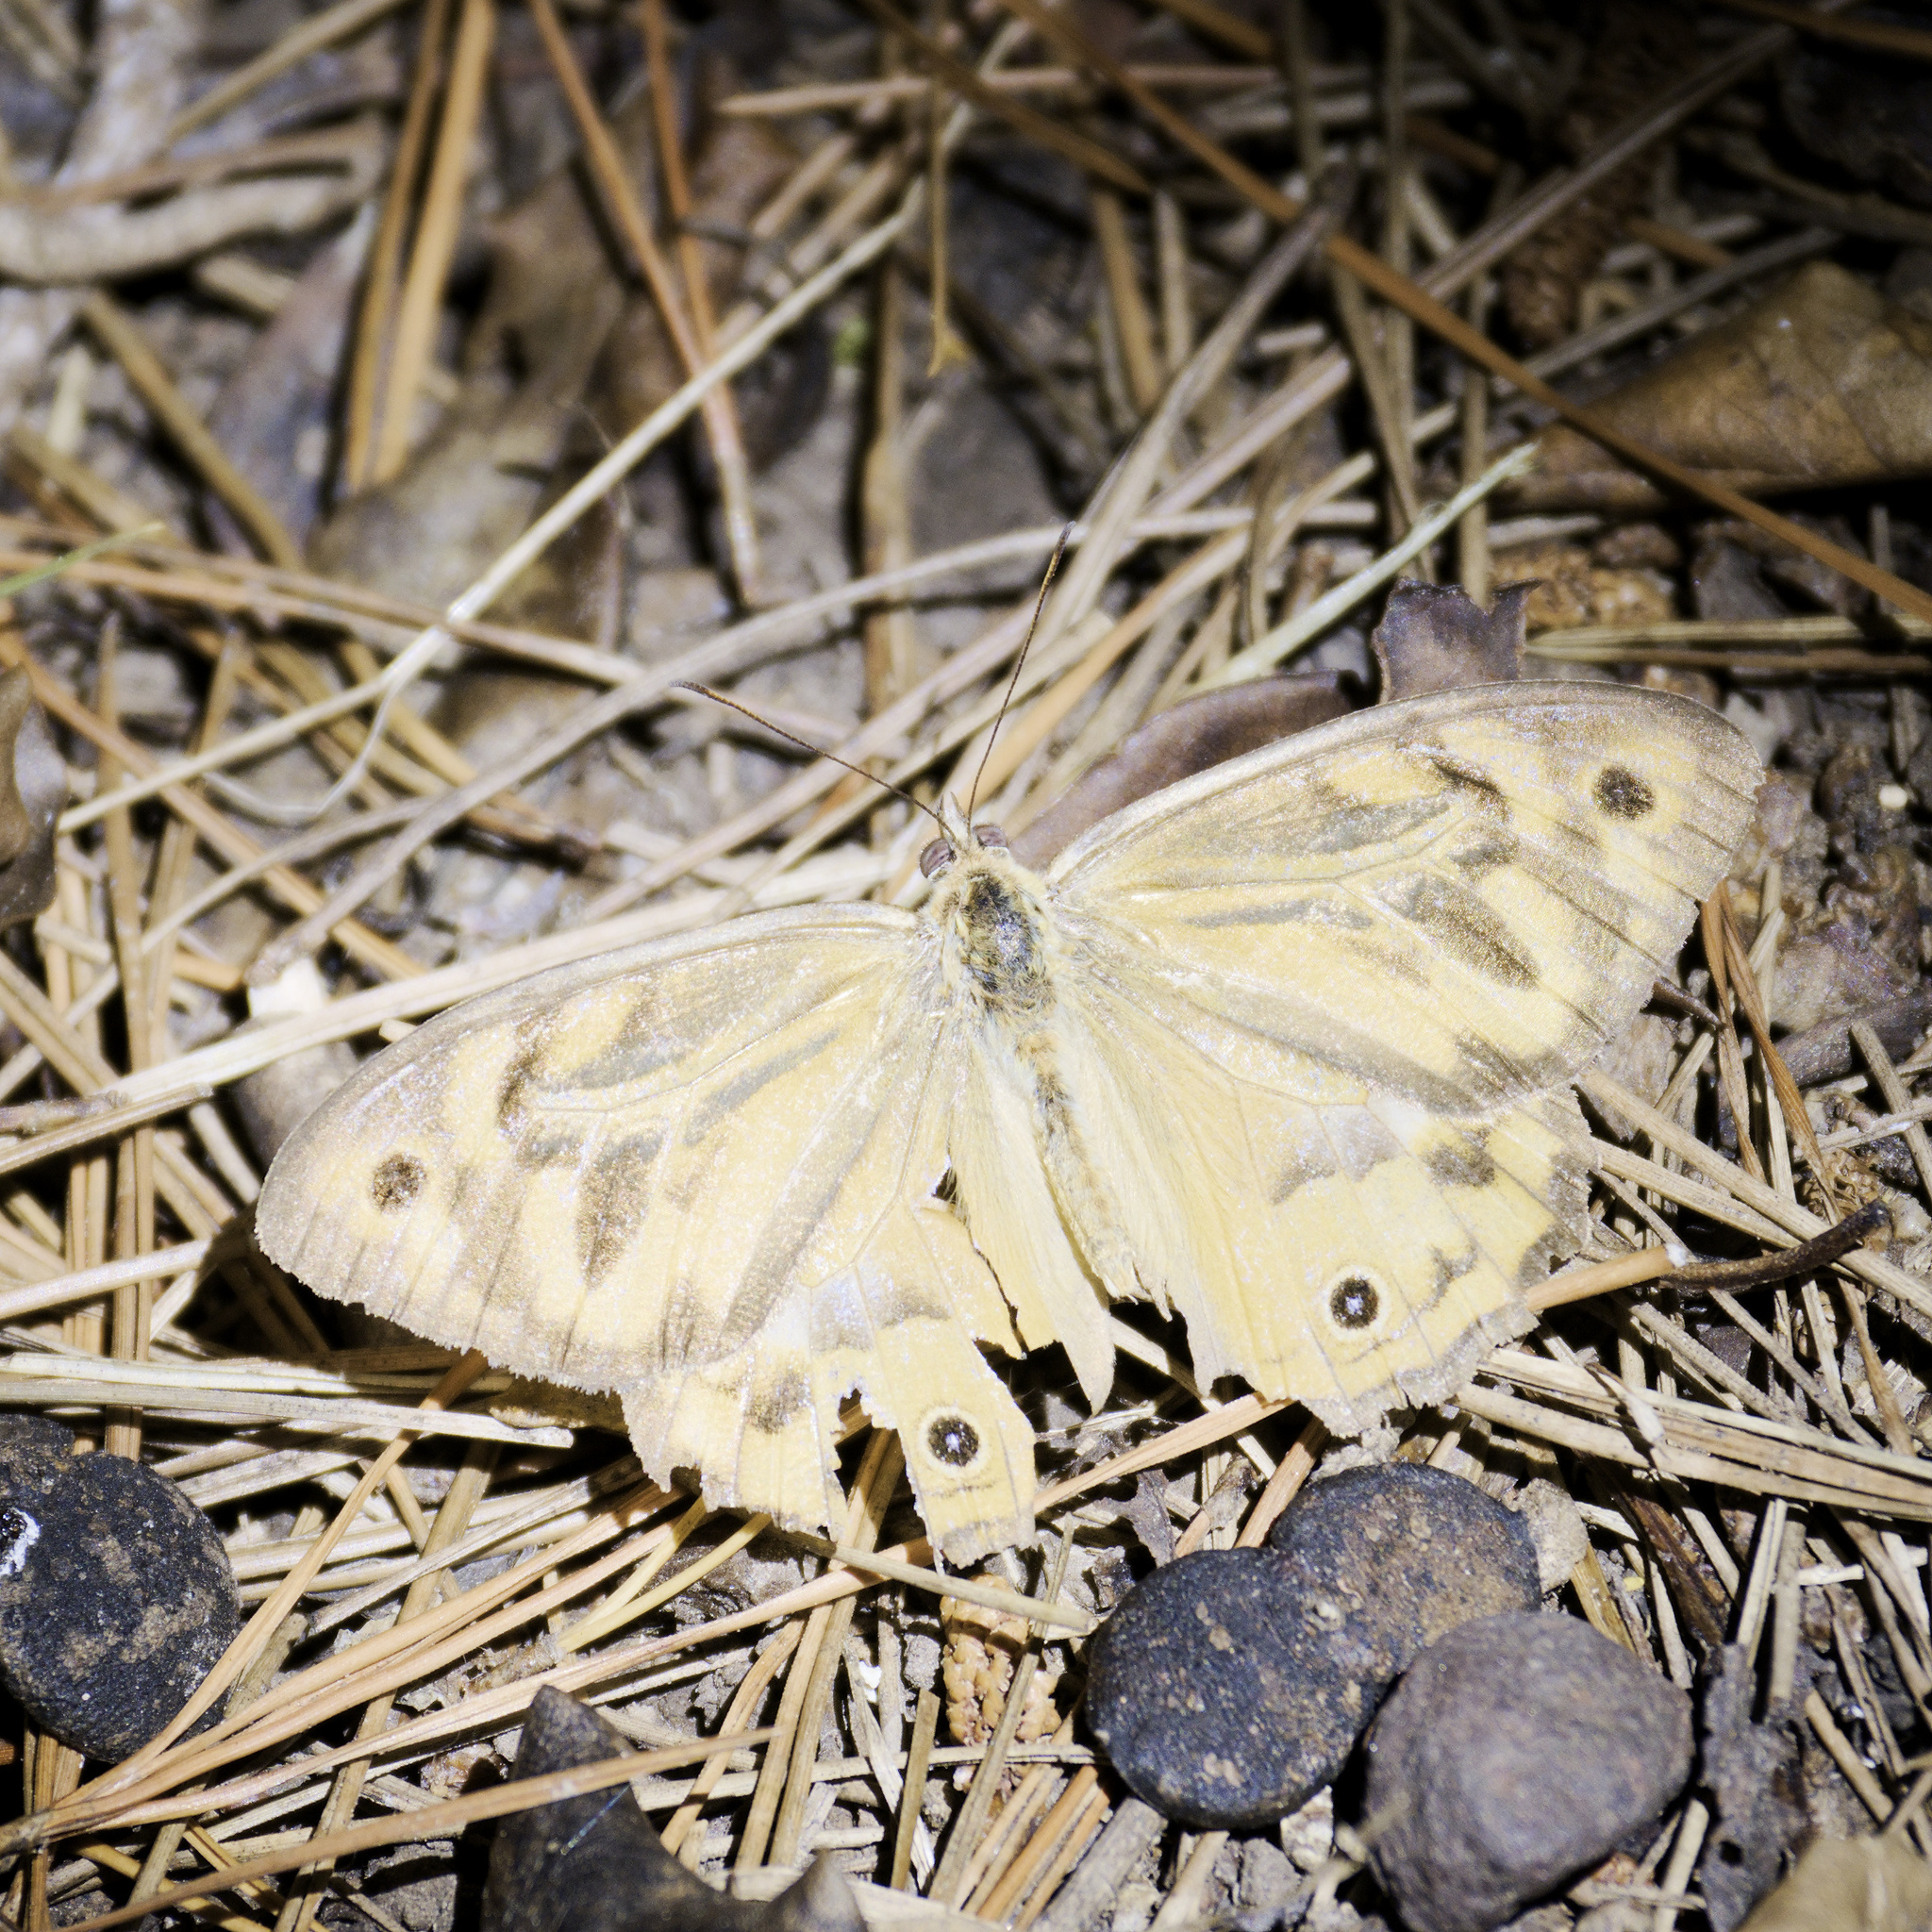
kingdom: Animalia
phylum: Arthropoda
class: Insecta
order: Lepidoptera
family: Nymphalidae
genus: Heteronympha
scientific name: Heteronympha merope
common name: Common brown
